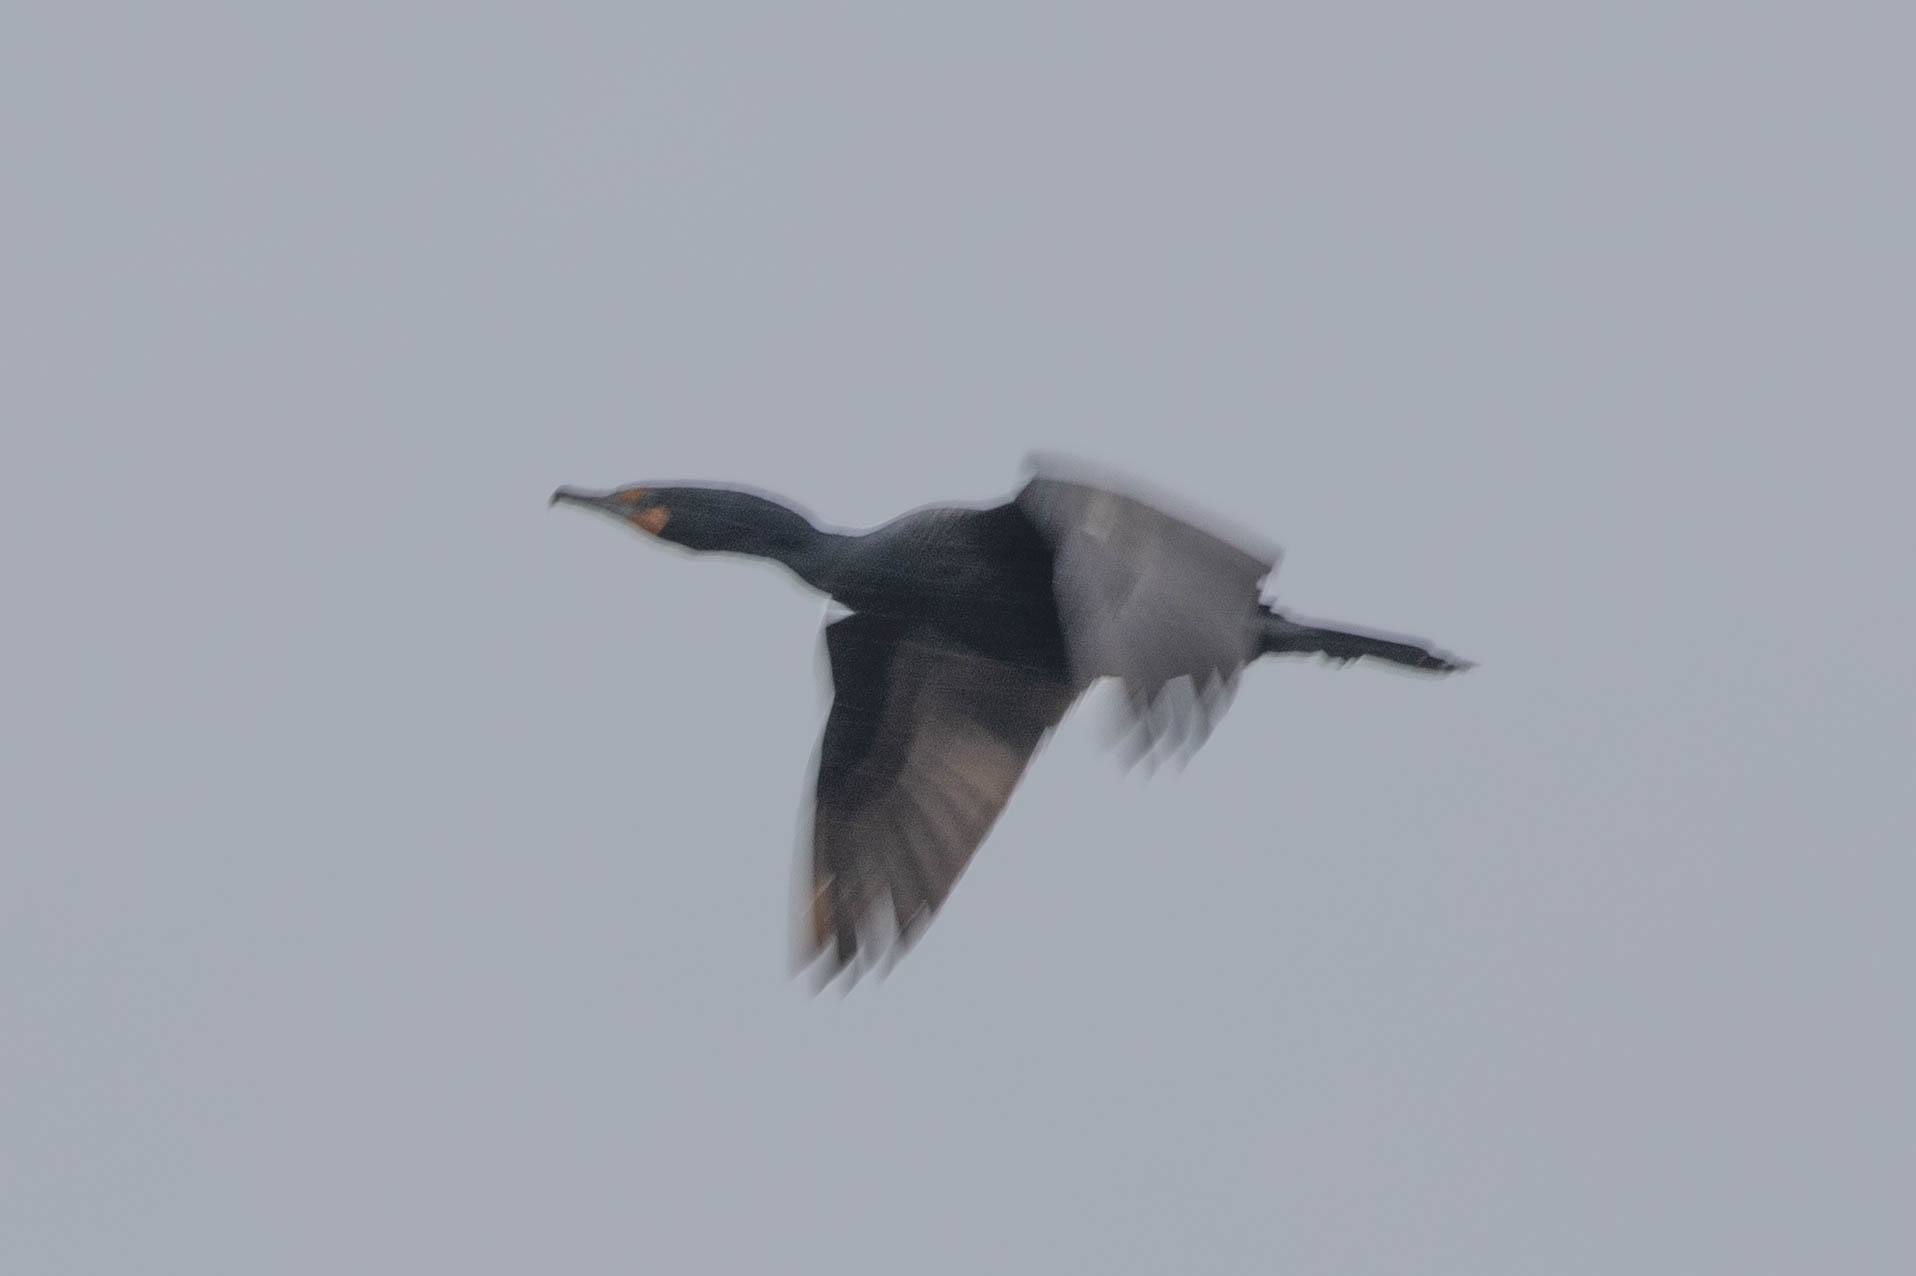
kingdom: Animalia
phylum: Chordata
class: Aves
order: Suliformes
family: Phalacrocoracidae
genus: Phalacrocorax
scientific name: Phalacrocorax auritus
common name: Double-crested cormorant
